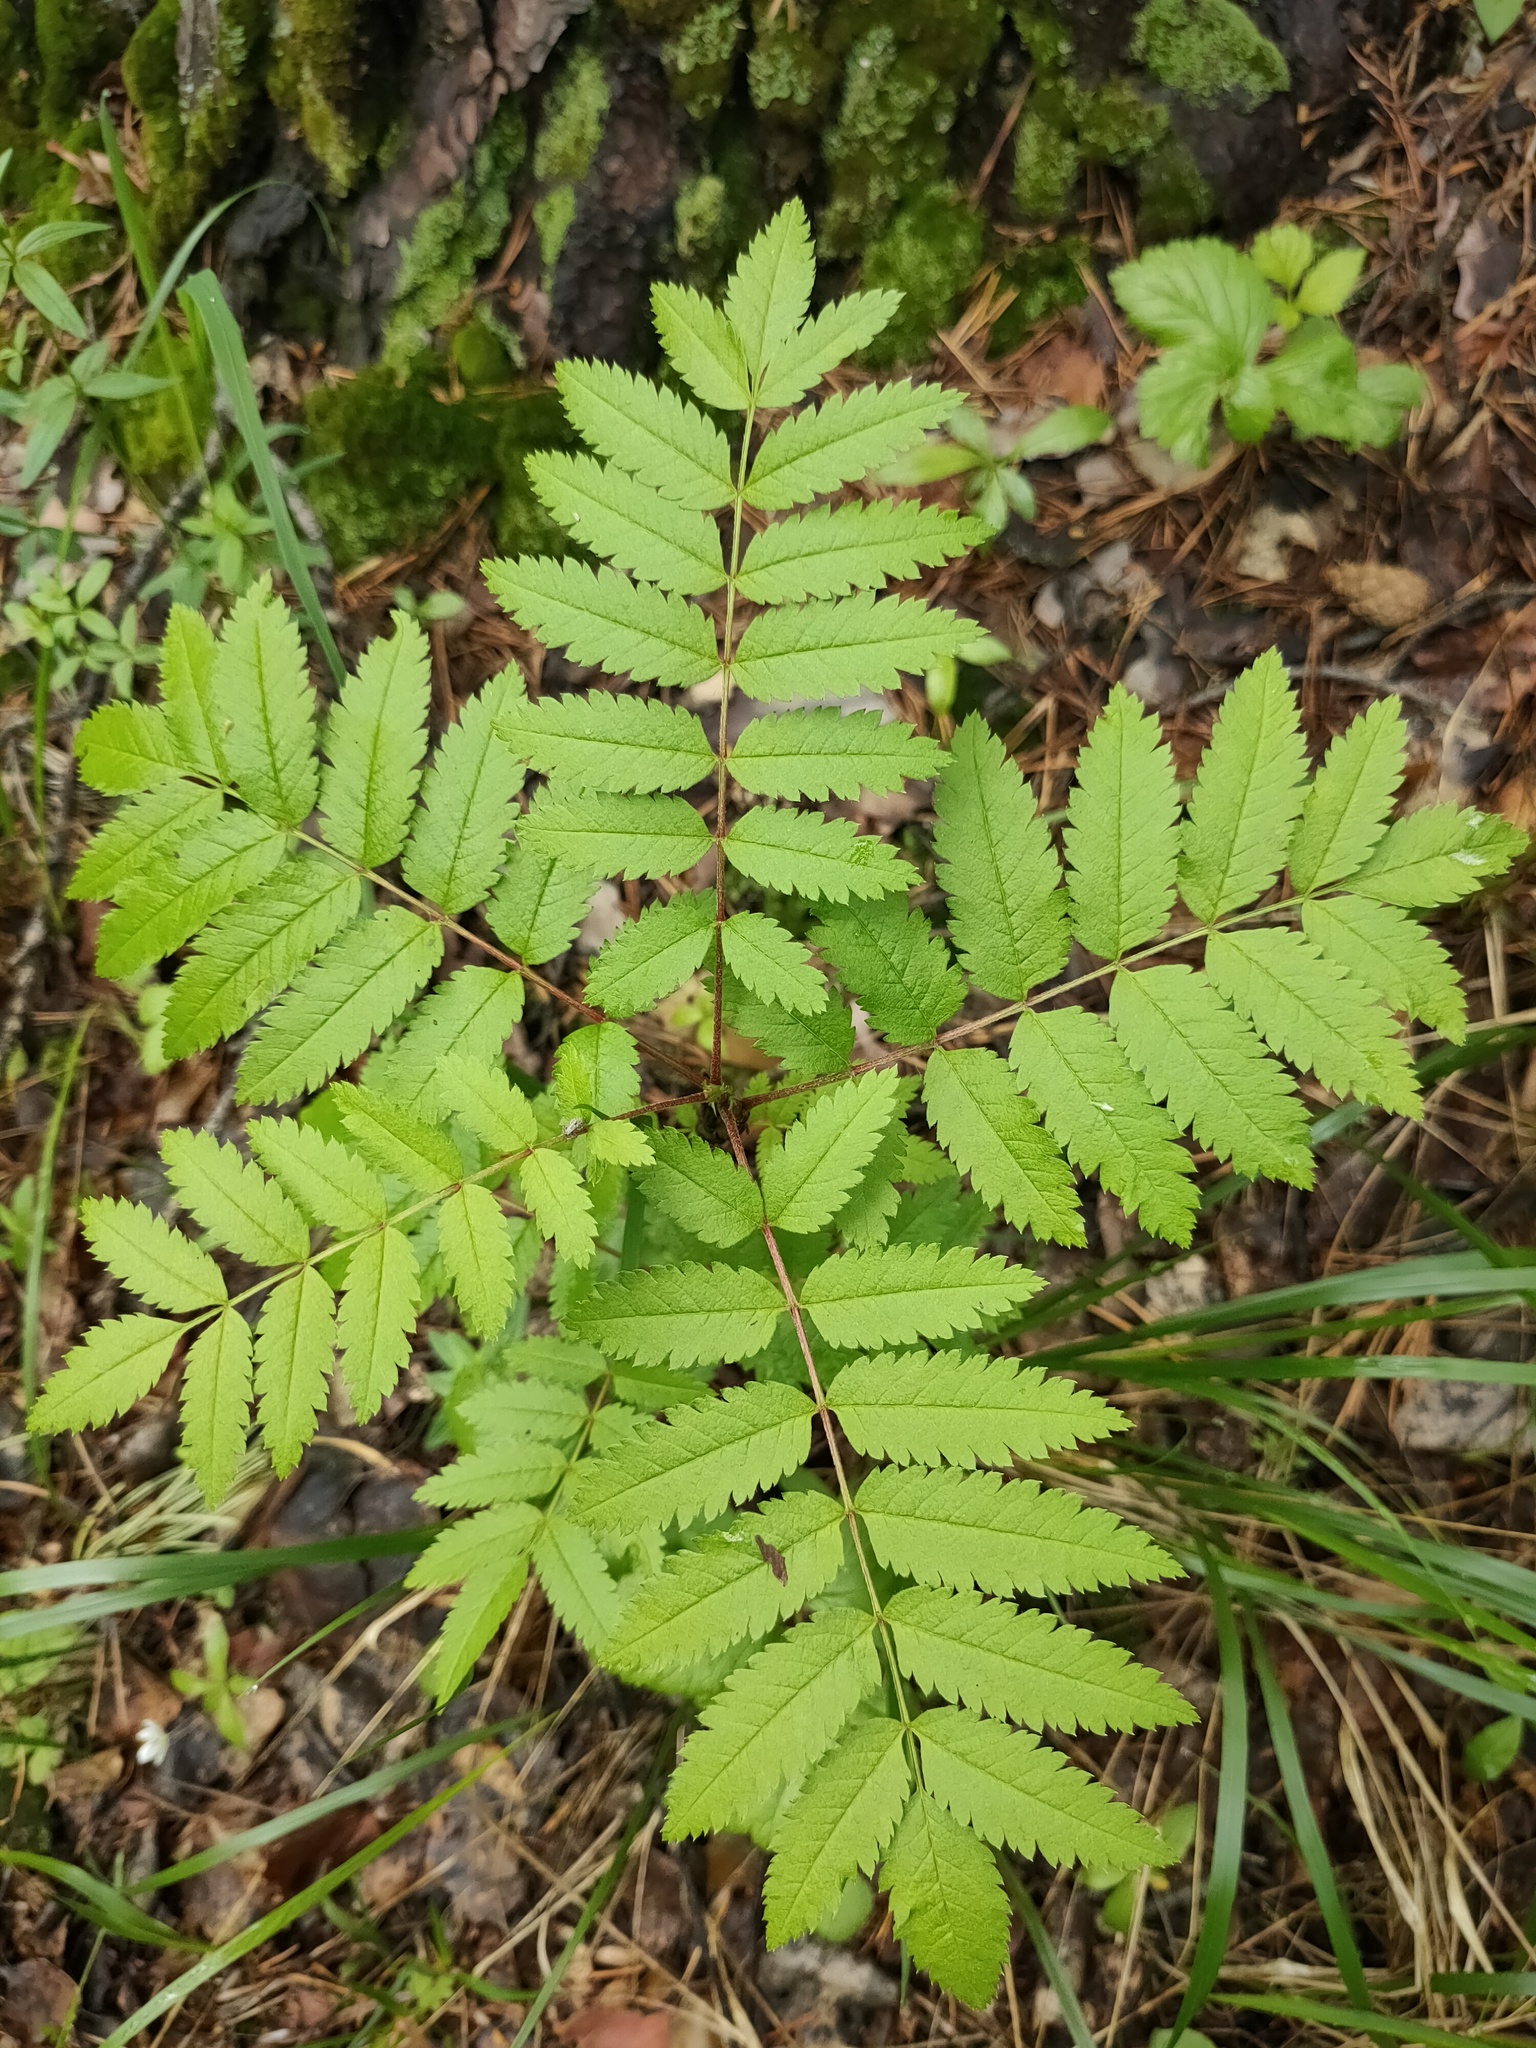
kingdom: Plantae
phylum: Tracheophyta
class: Magnoliopsida
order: Rosales
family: Rosaceae
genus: Sorbus
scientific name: Sorbus aucuparia
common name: Rowan
